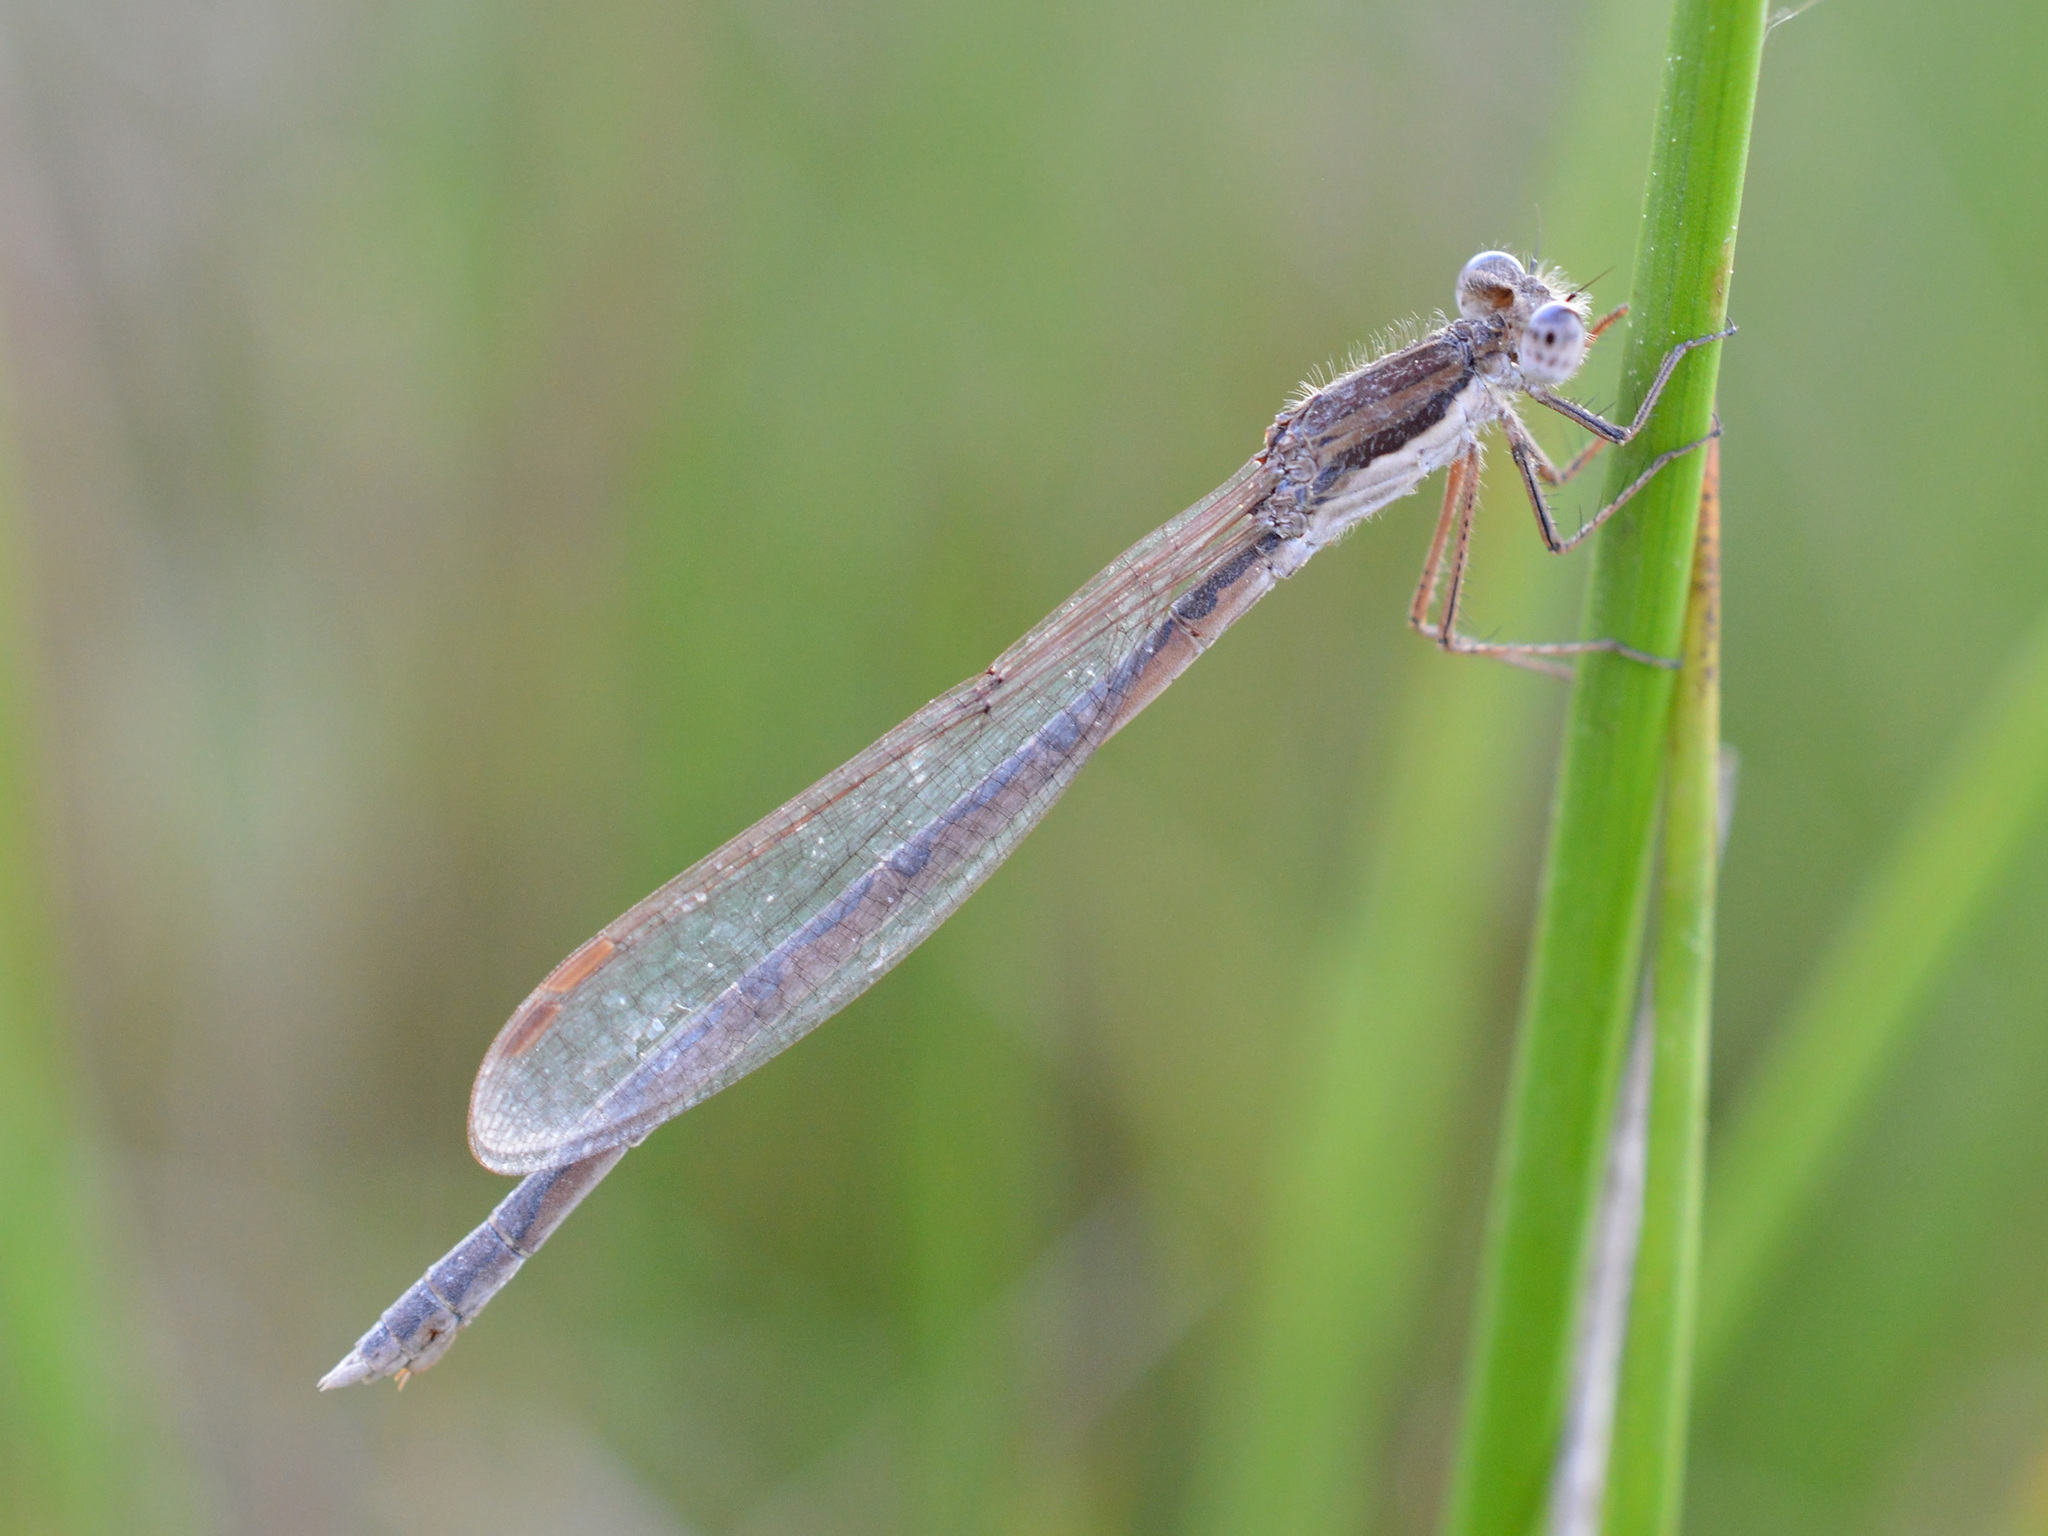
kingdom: Animalia
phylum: Arthropoda
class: Insecta
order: Odonata
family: Lestidae
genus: Sympecma
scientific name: Sympecma fusca
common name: Common winter damsel
